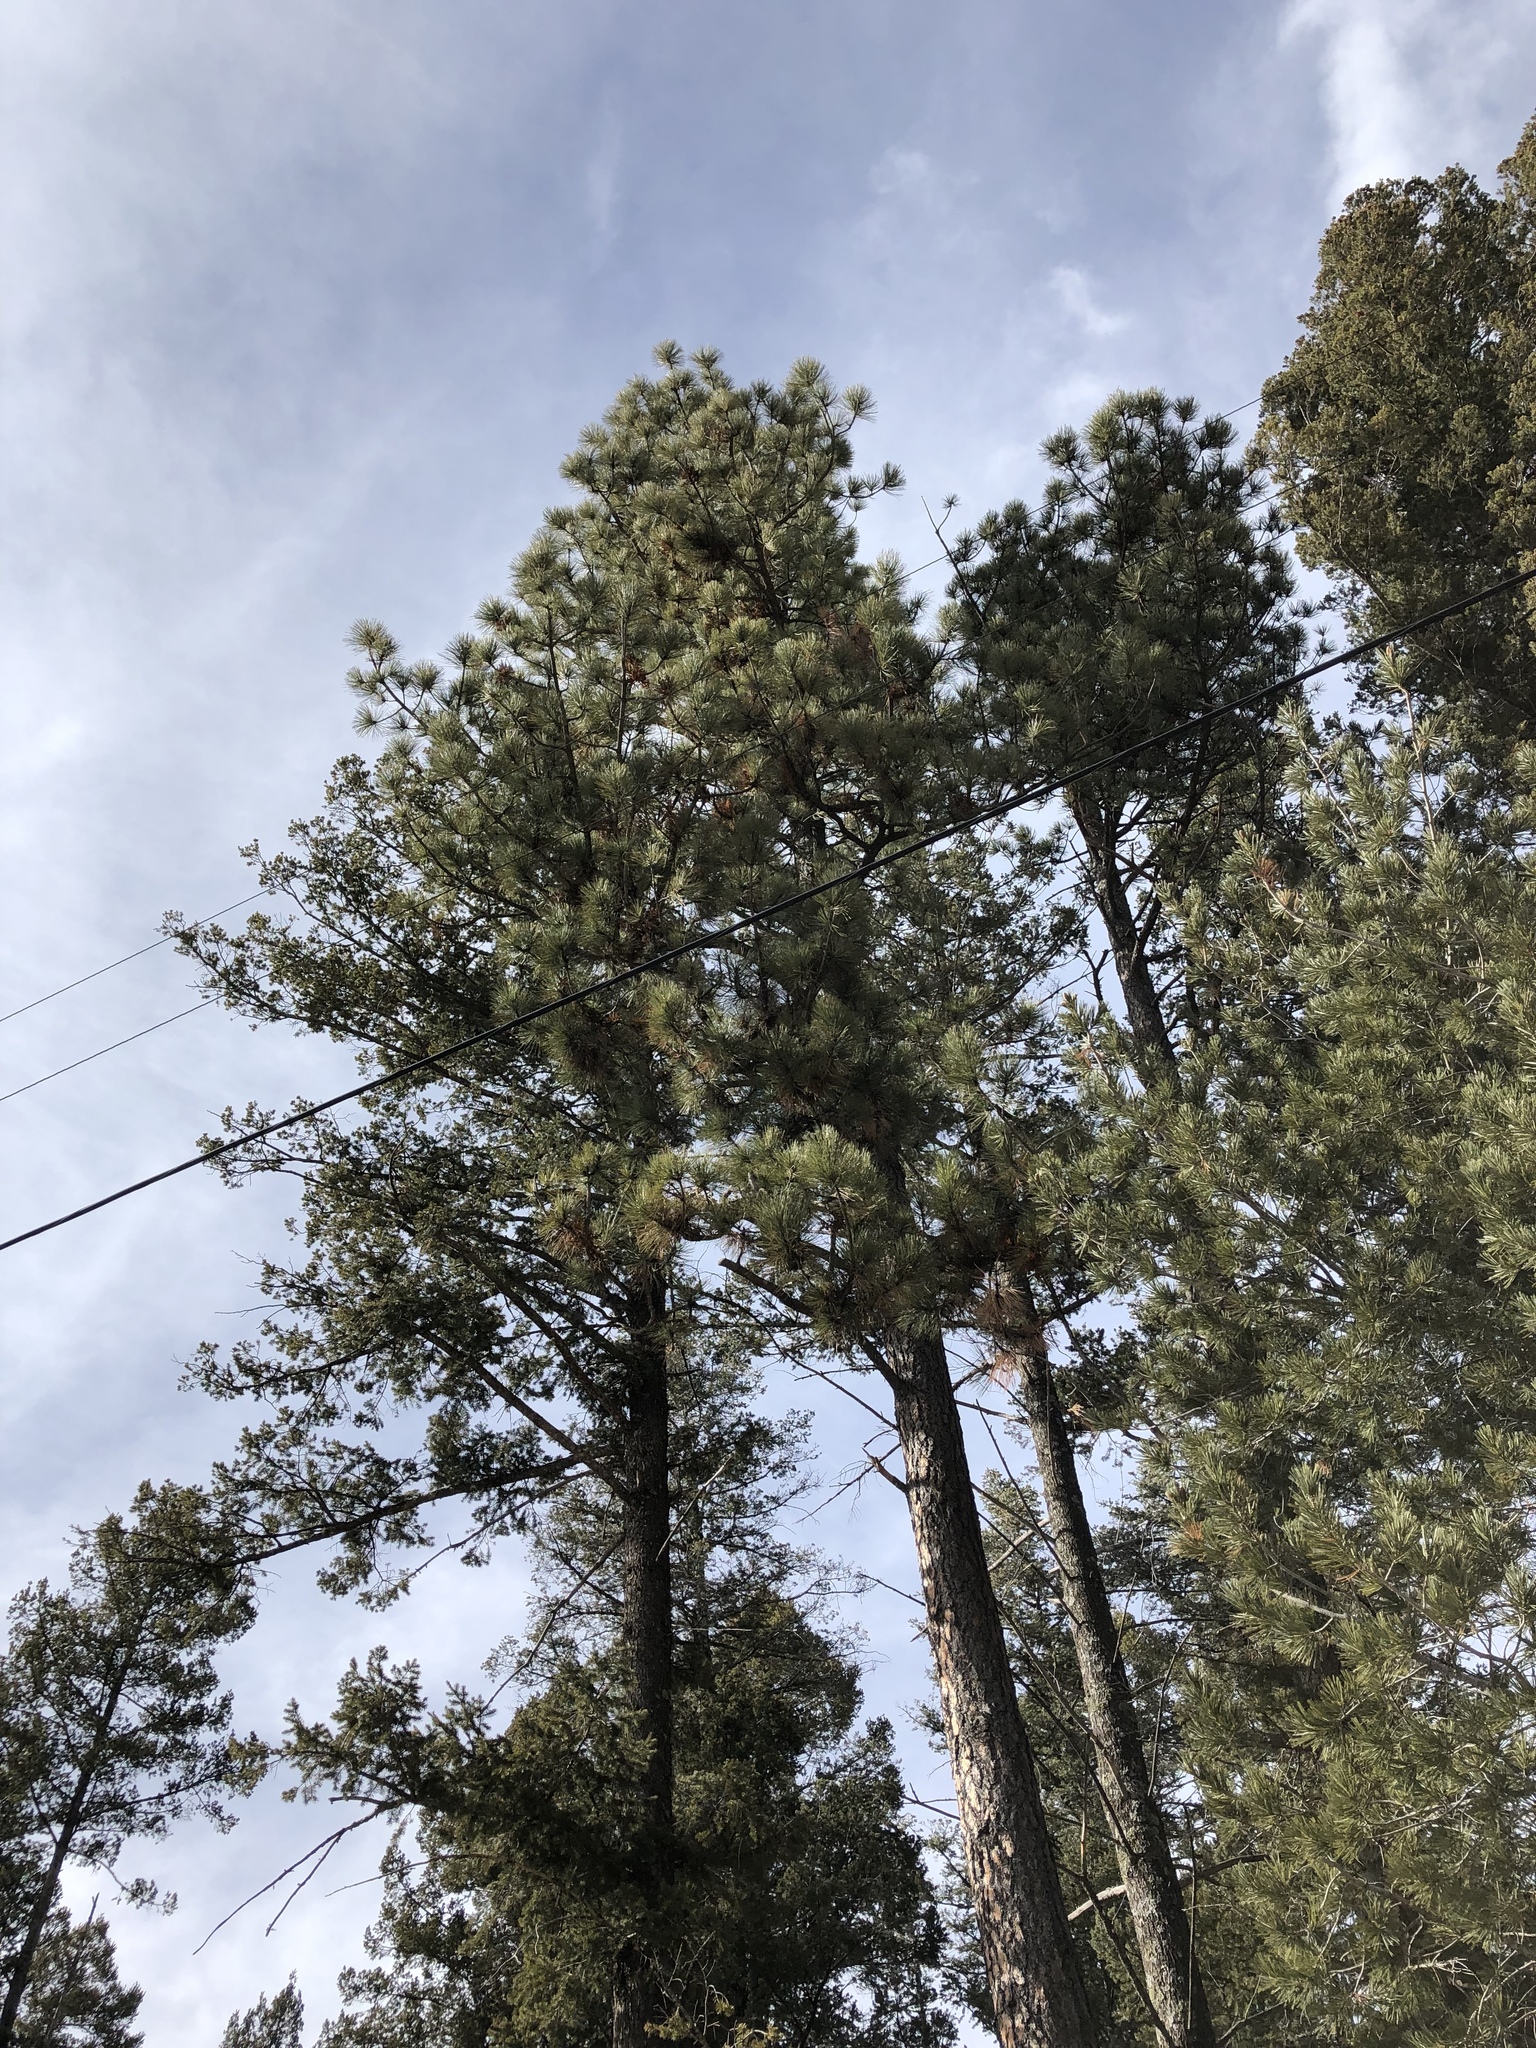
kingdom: Plantae
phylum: Tracheophyta
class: Pinopsida
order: Pinales
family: Pinaceae
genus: Pinus
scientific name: Pinus ponderosa
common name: Western yellow-pine
